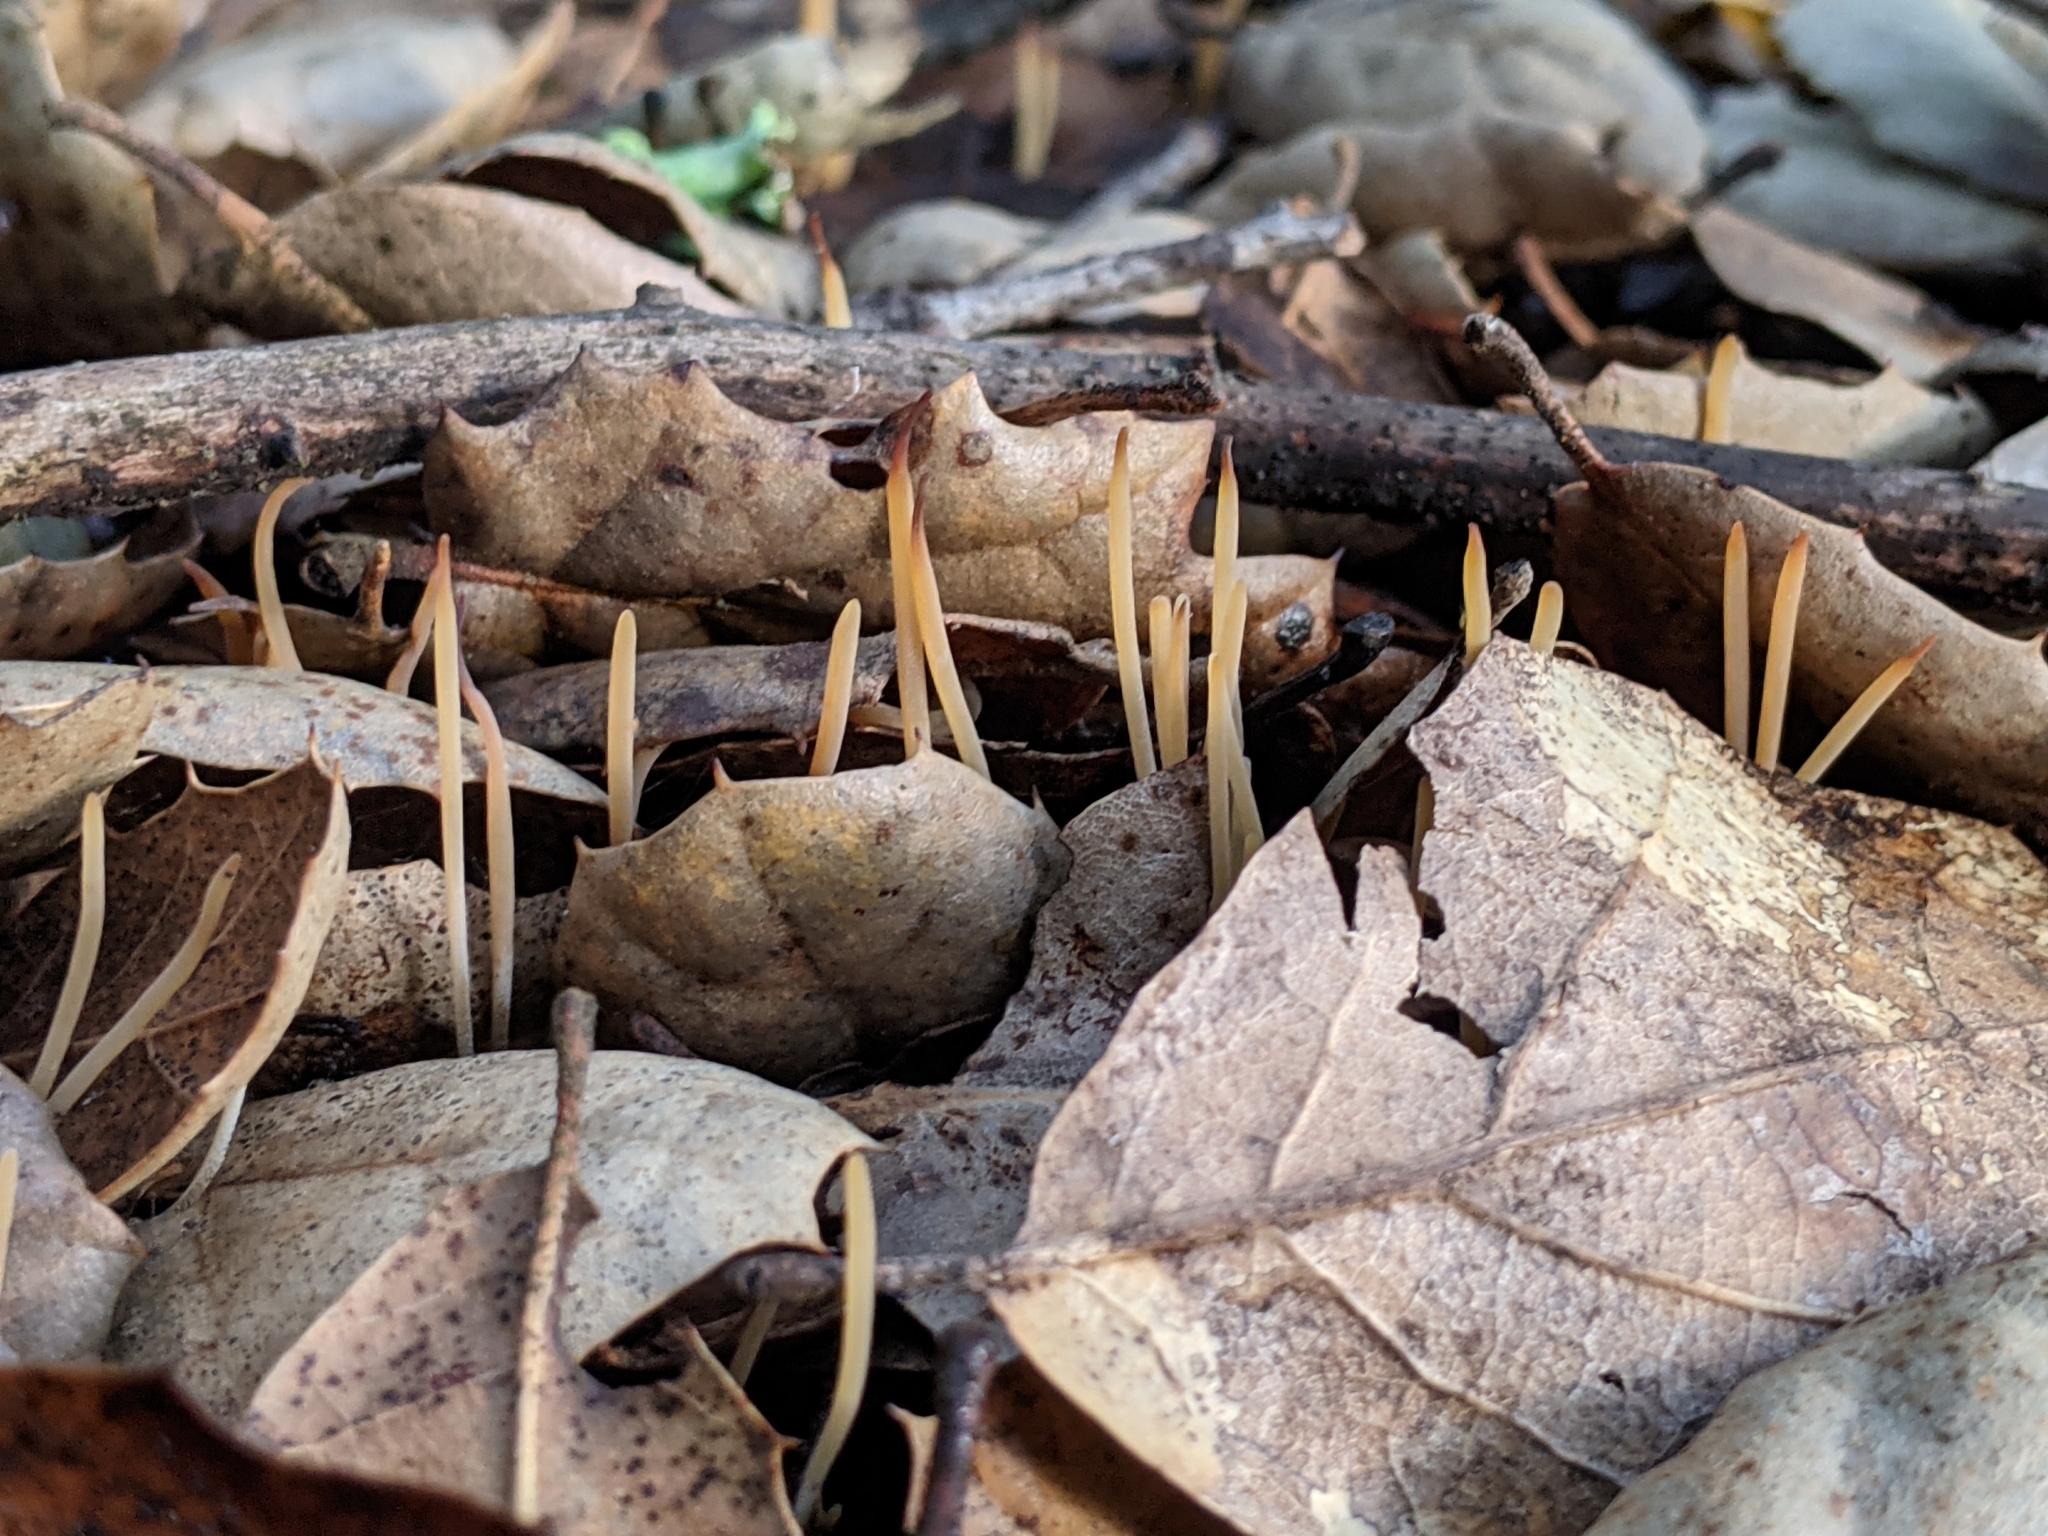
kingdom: Fungi
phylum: Basidiomycota
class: Agaricomycetes
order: Agaricales
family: Typhulaceae
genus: Typhula
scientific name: Typhula juncea
